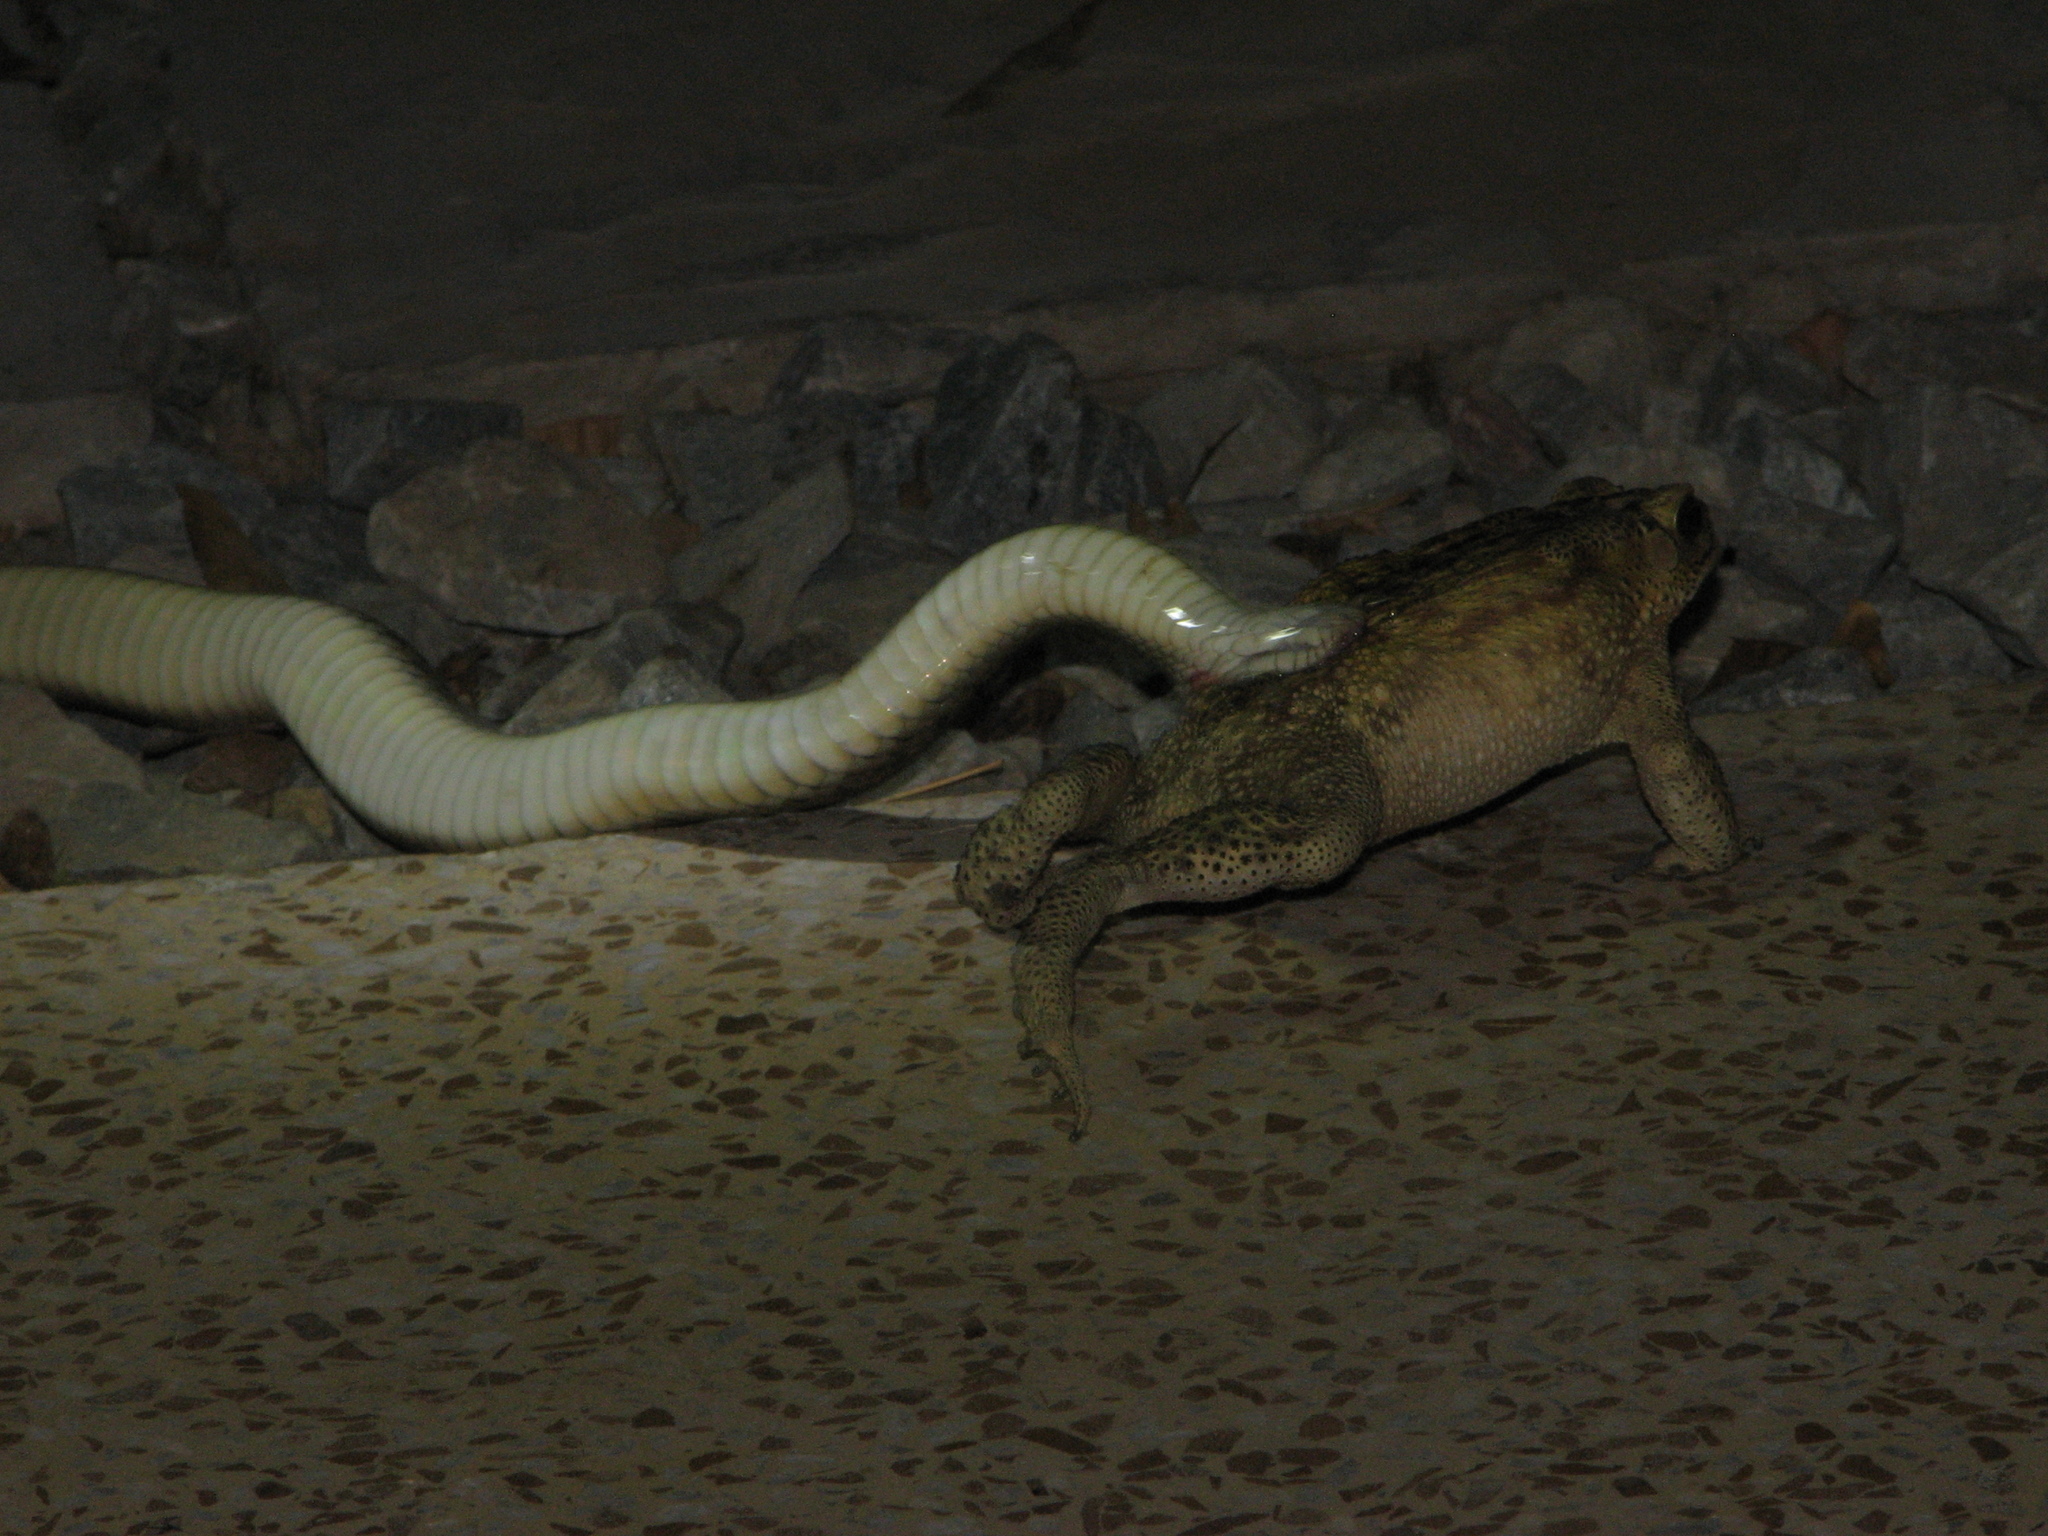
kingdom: Animalia
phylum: Chordata
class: Amphibia
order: Anura
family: Bufonidae
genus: Duttaphrynus
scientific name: Duttaphrynus melanostictus
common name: Common sunda toad
